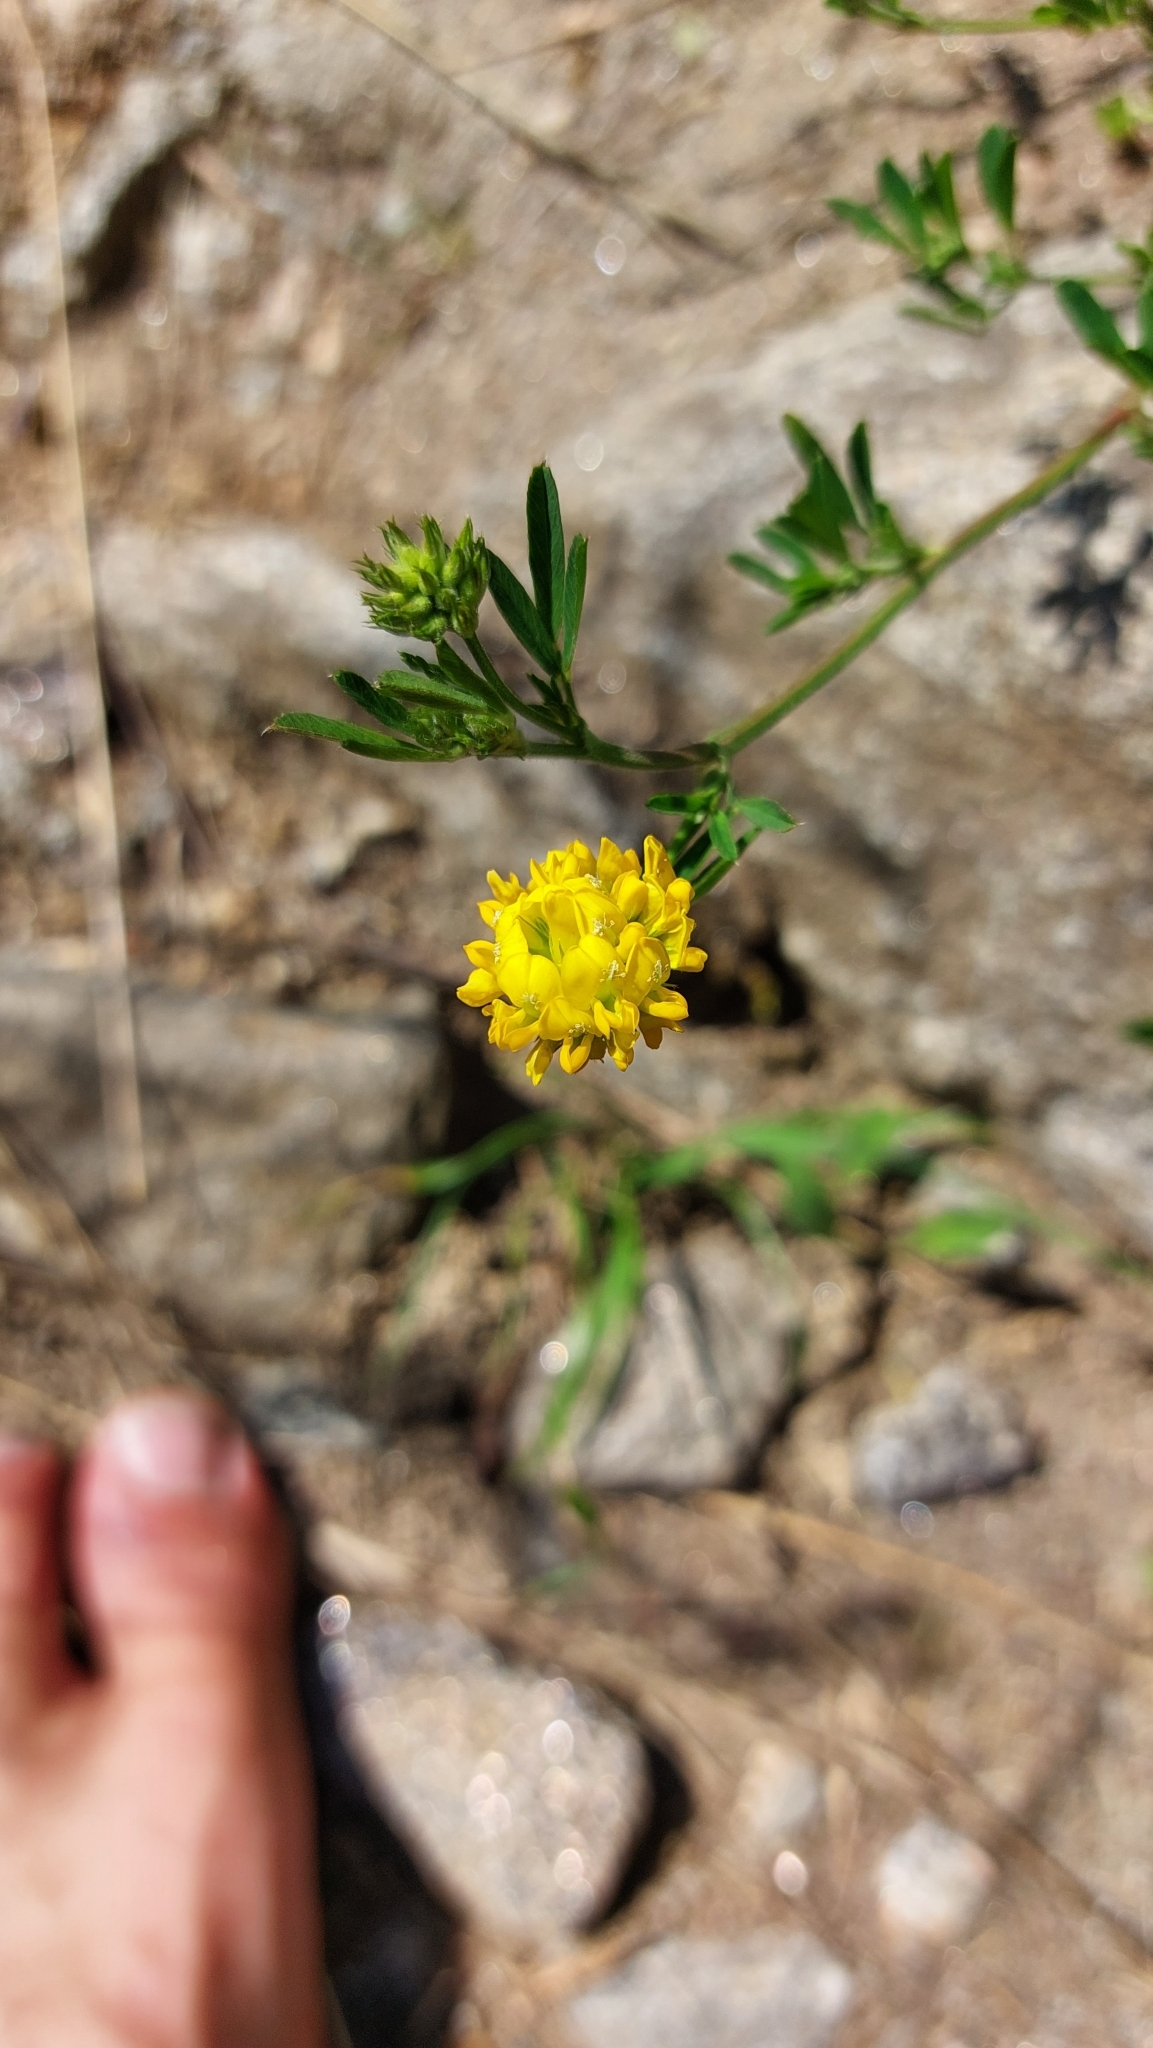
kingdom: Plantae
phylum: Tracheophyta
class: Magnoliopsida
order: Fabales
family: Fabaceae
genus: Medicago
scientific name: Medicago falcata
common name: Sickle medick
